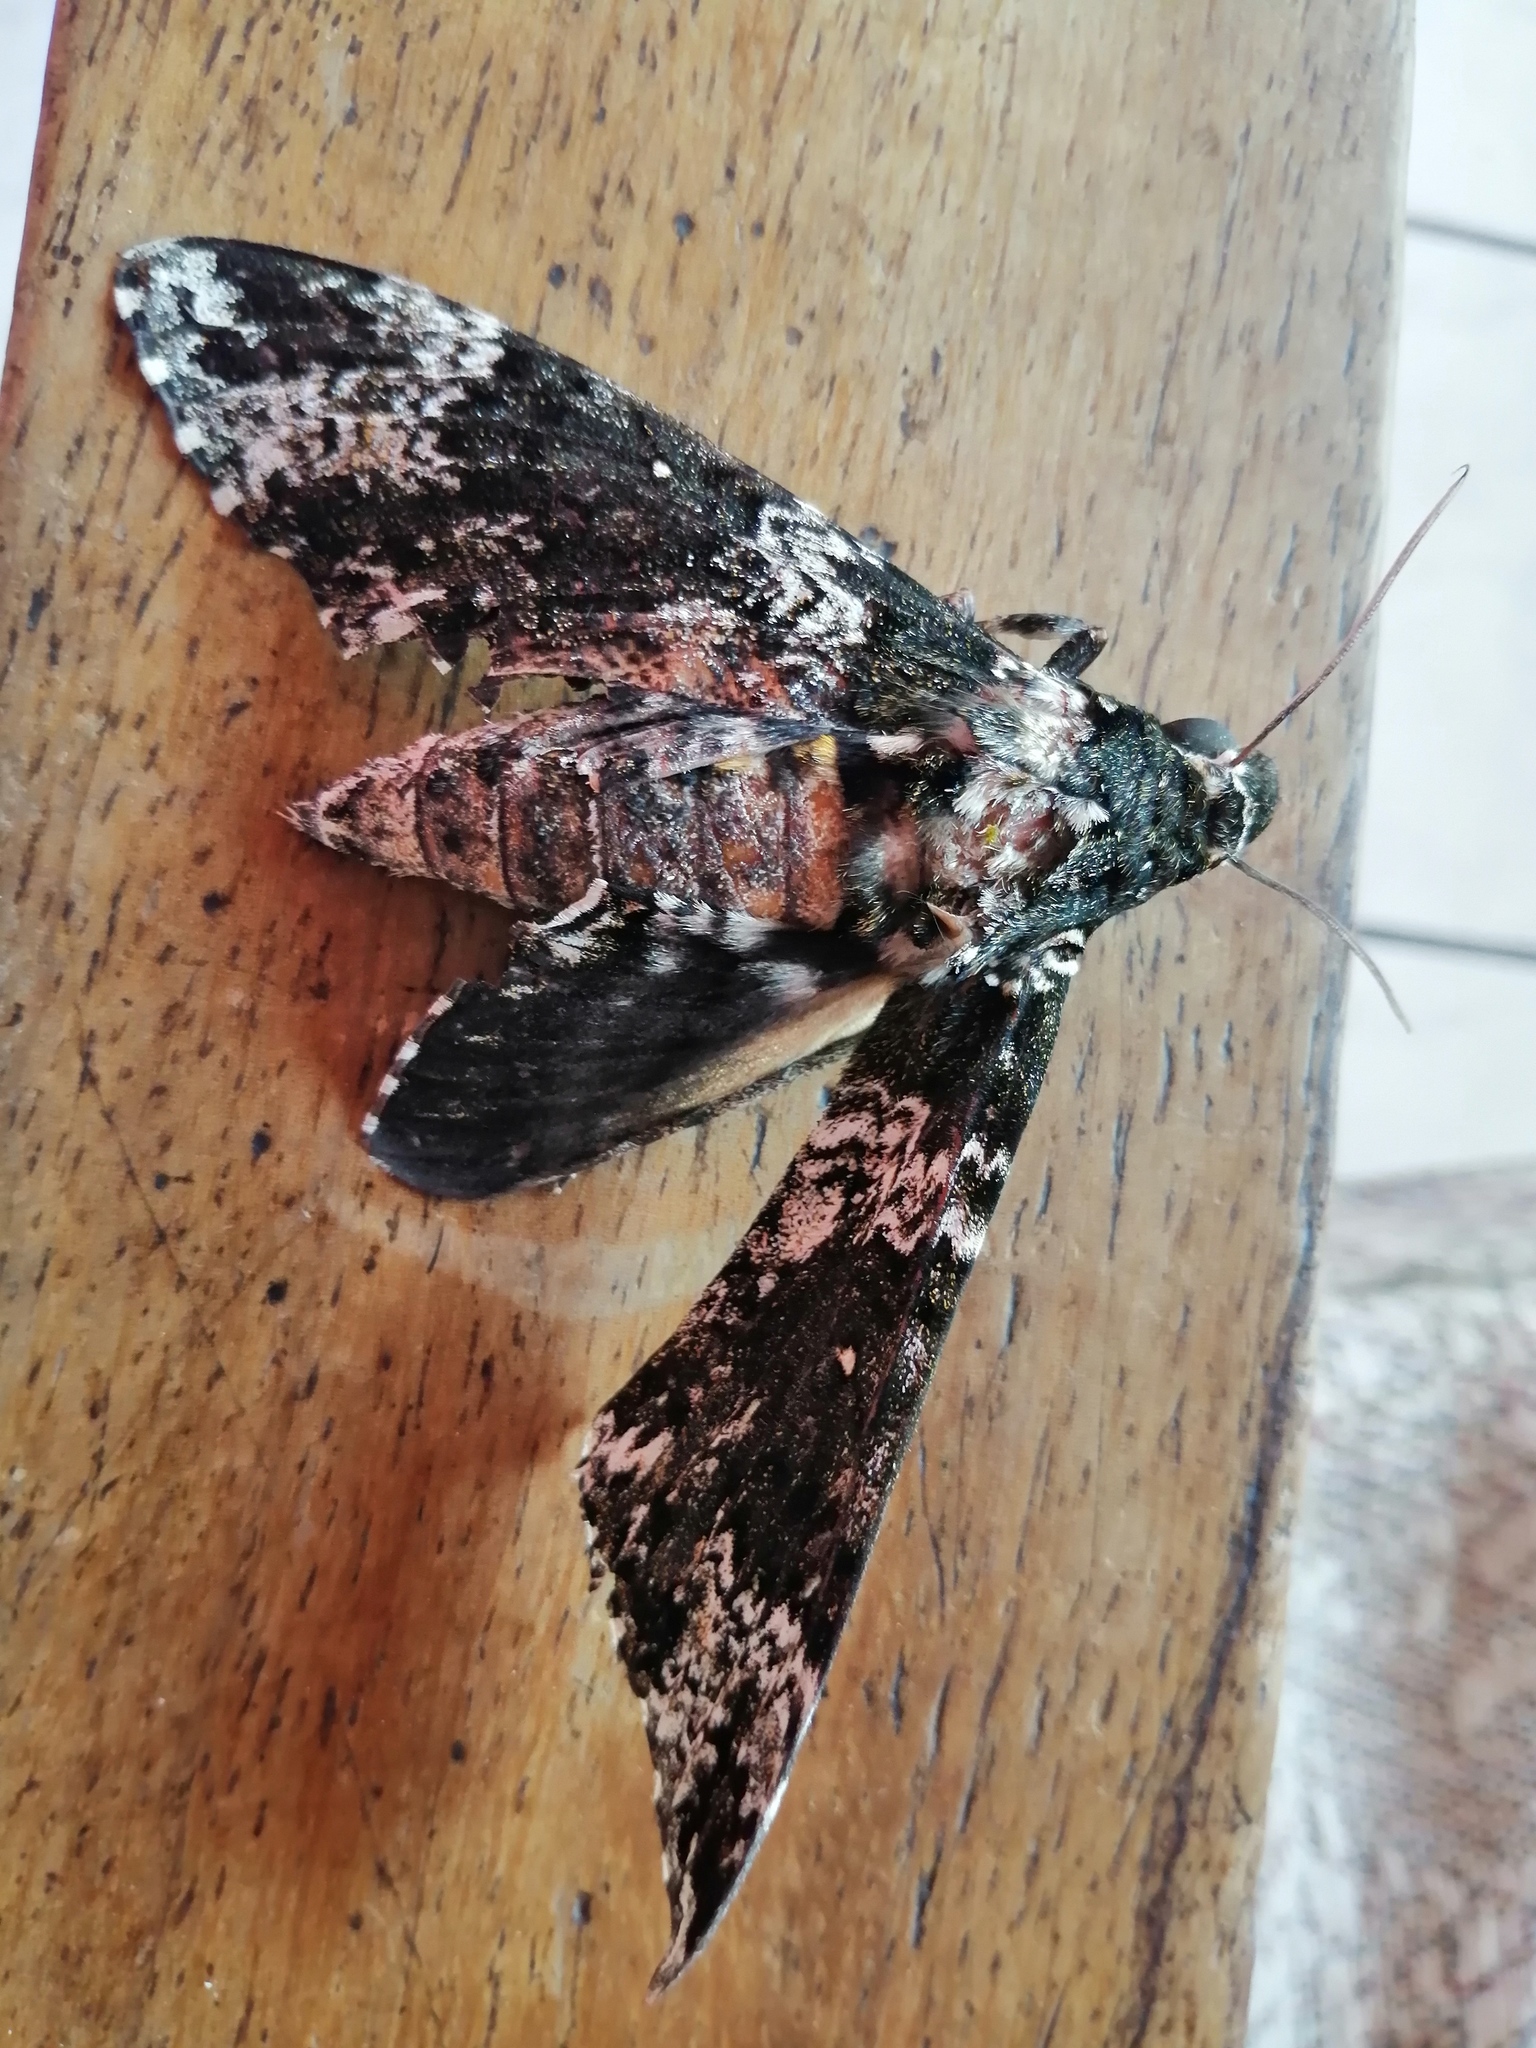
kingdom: Animalia
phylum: Arthropoda
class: Insecta
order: Lepidoptera
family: Sphingidae
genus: Manduca
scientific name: Manduca rustica
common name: Rustic sphinx
